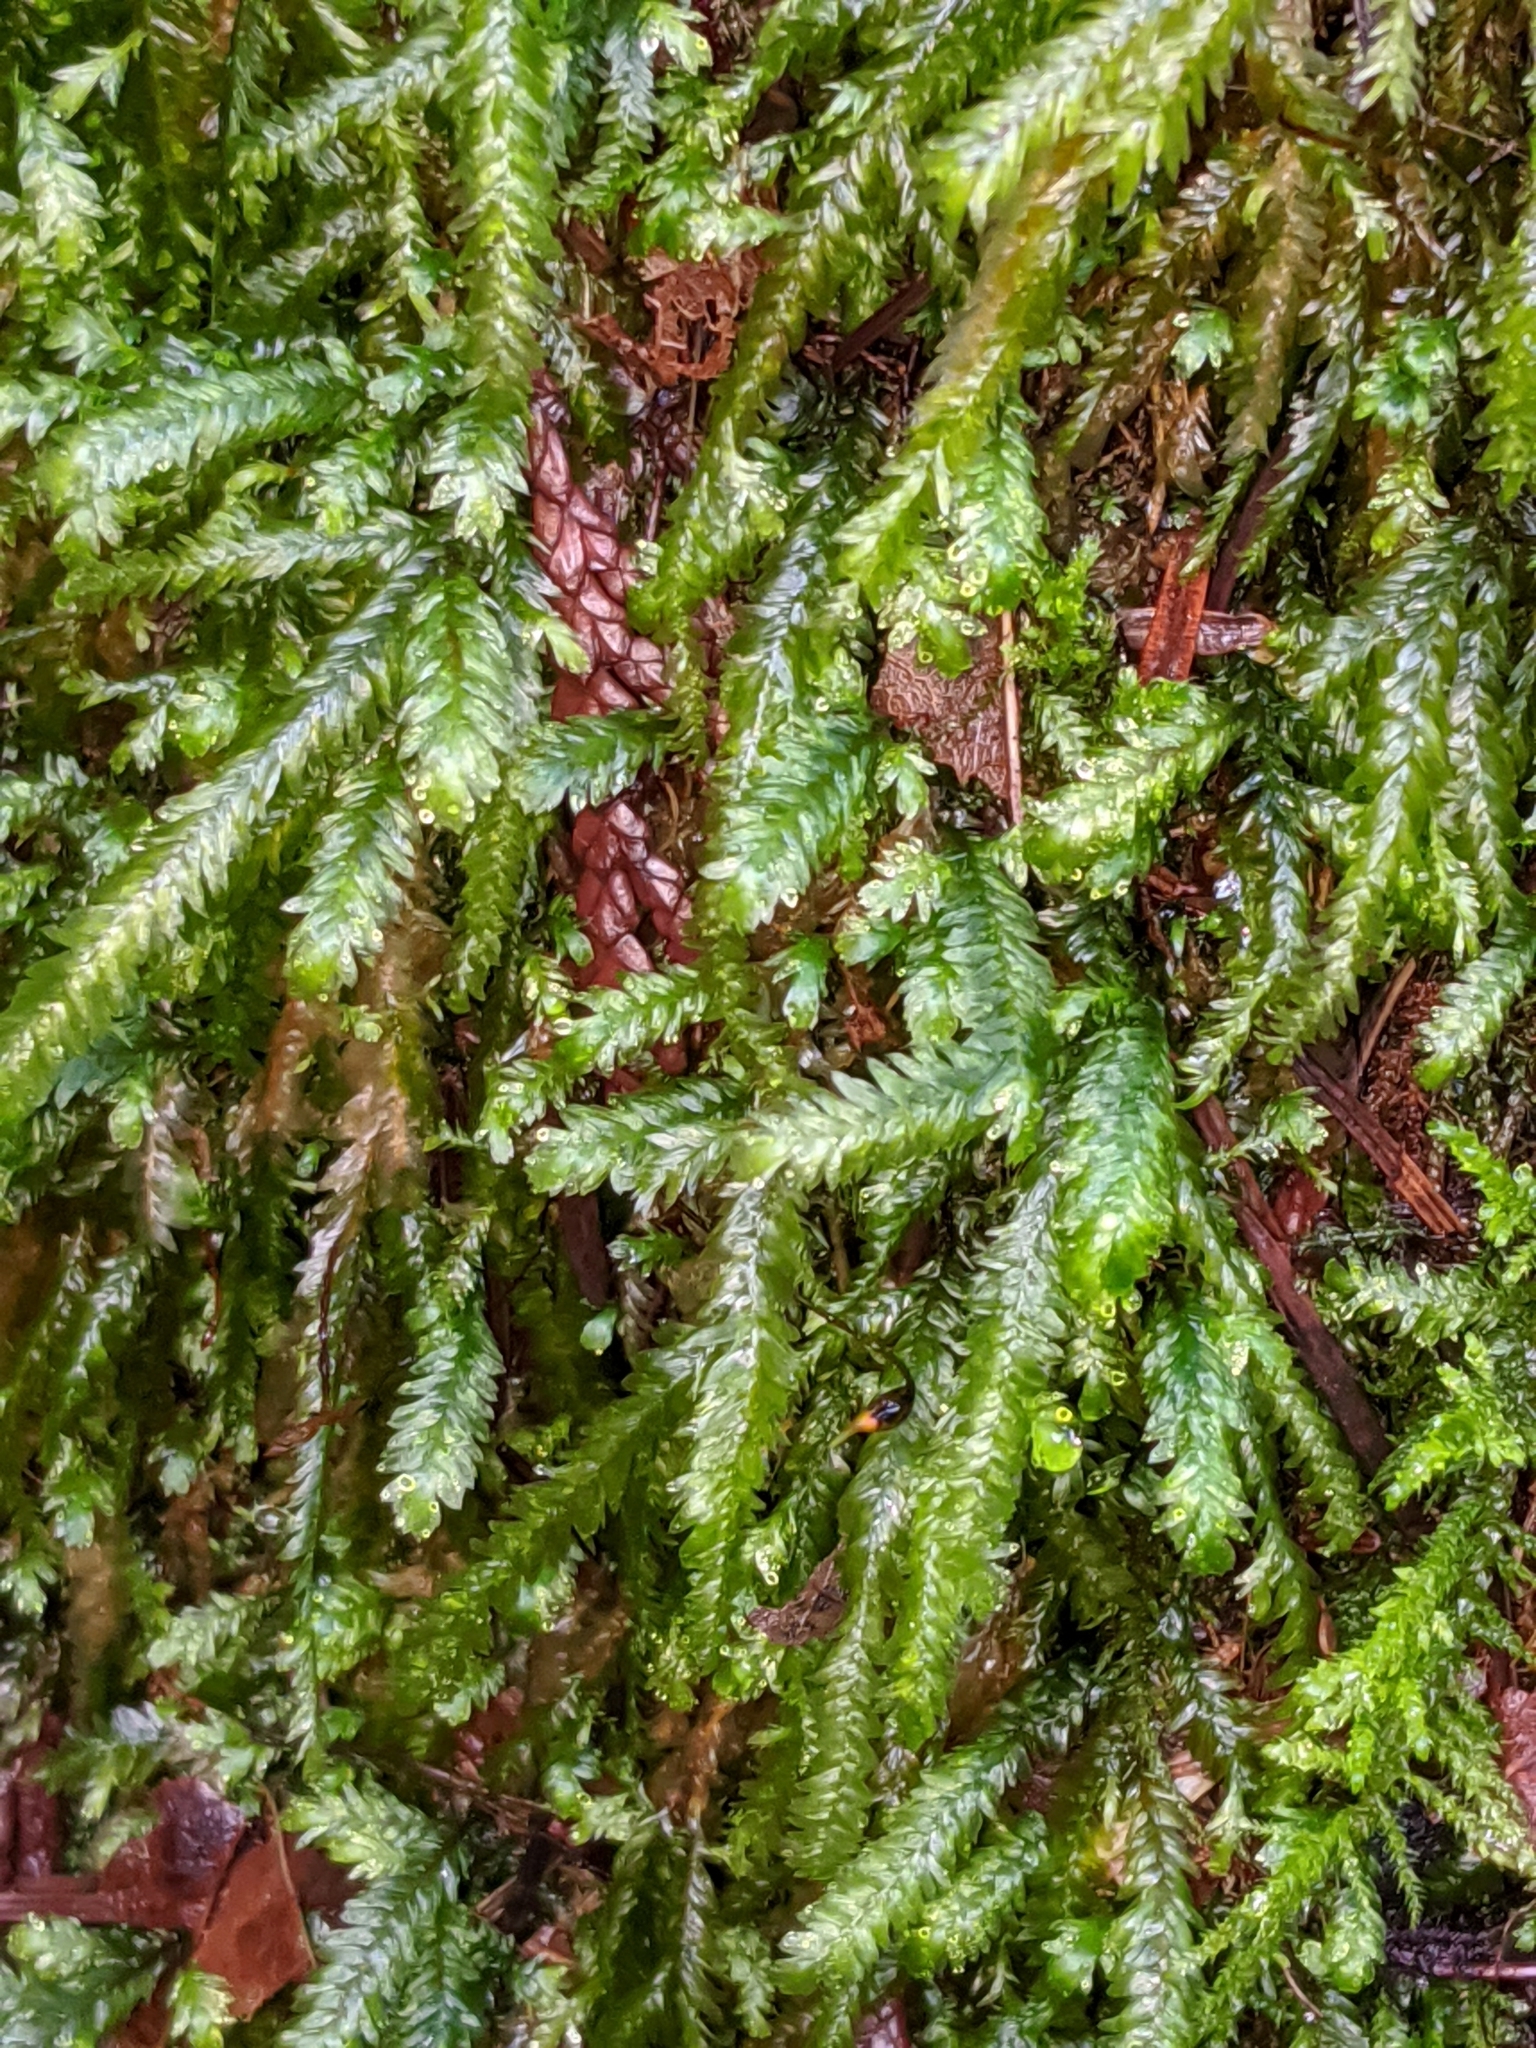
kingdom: Plantae
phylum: Bryophyta
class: Bryopsida
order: Hypnales
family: Neckeraceae
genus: Dannorrisia
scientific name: Dannorrisia bigelovii
